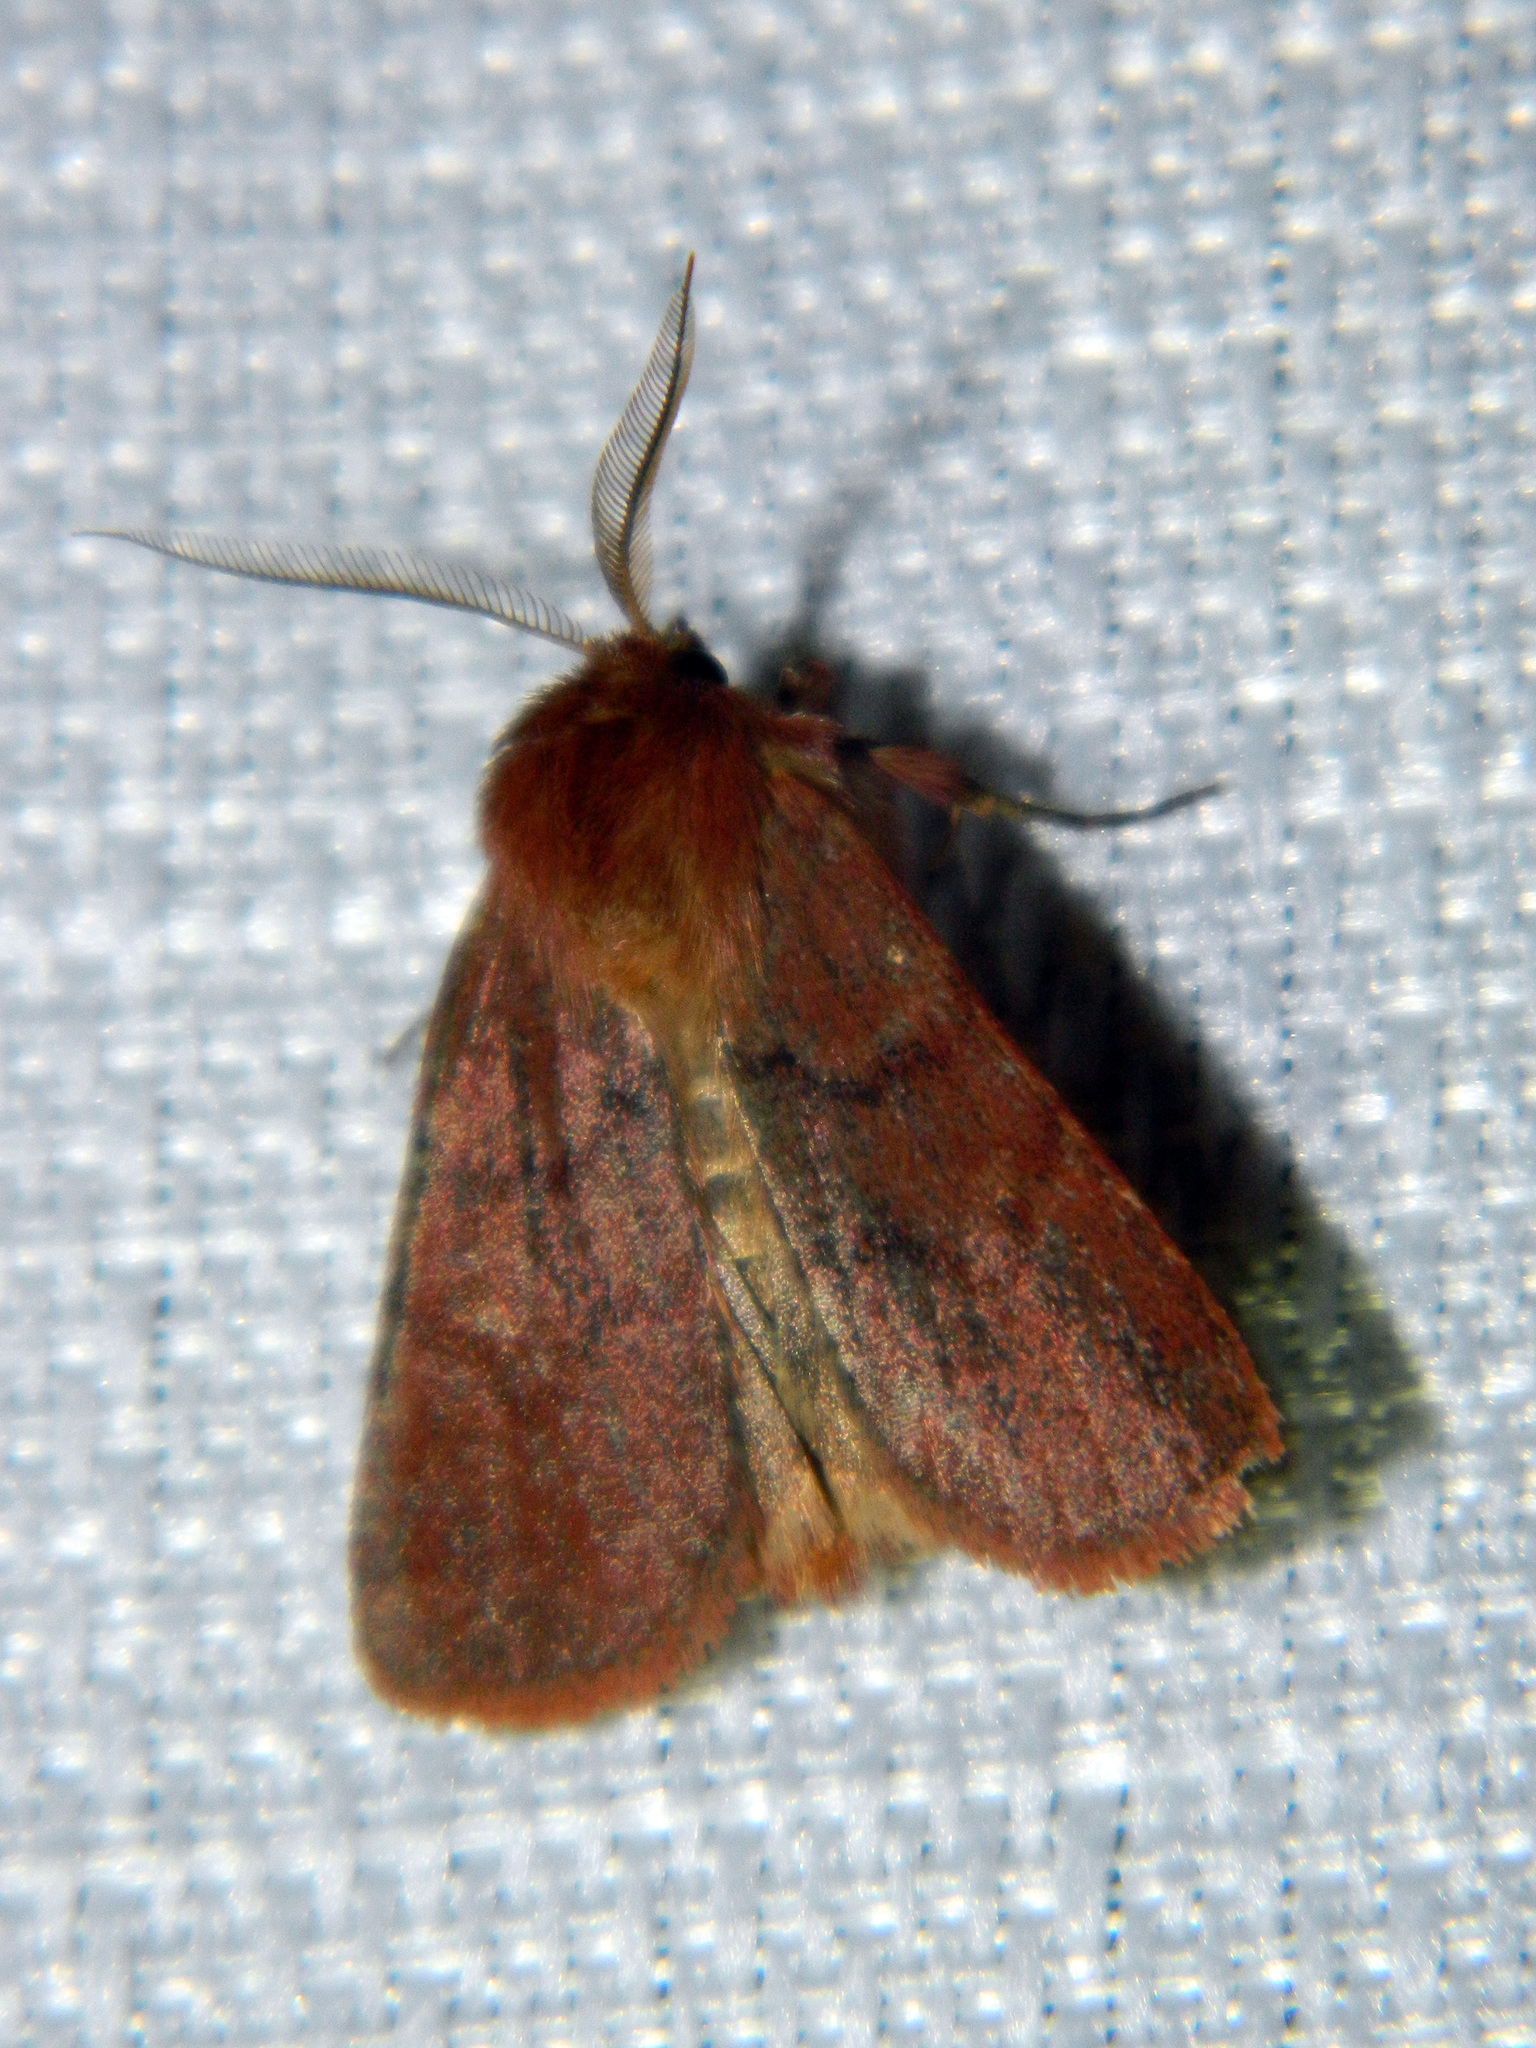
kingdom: Animalia
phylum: Arthropoda
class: Insecta
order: Lepidoptera
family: Noctuidae
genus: Hemipachnobia
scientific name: Hemipachnobia monochromatea
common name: Sundew cutworm moth
